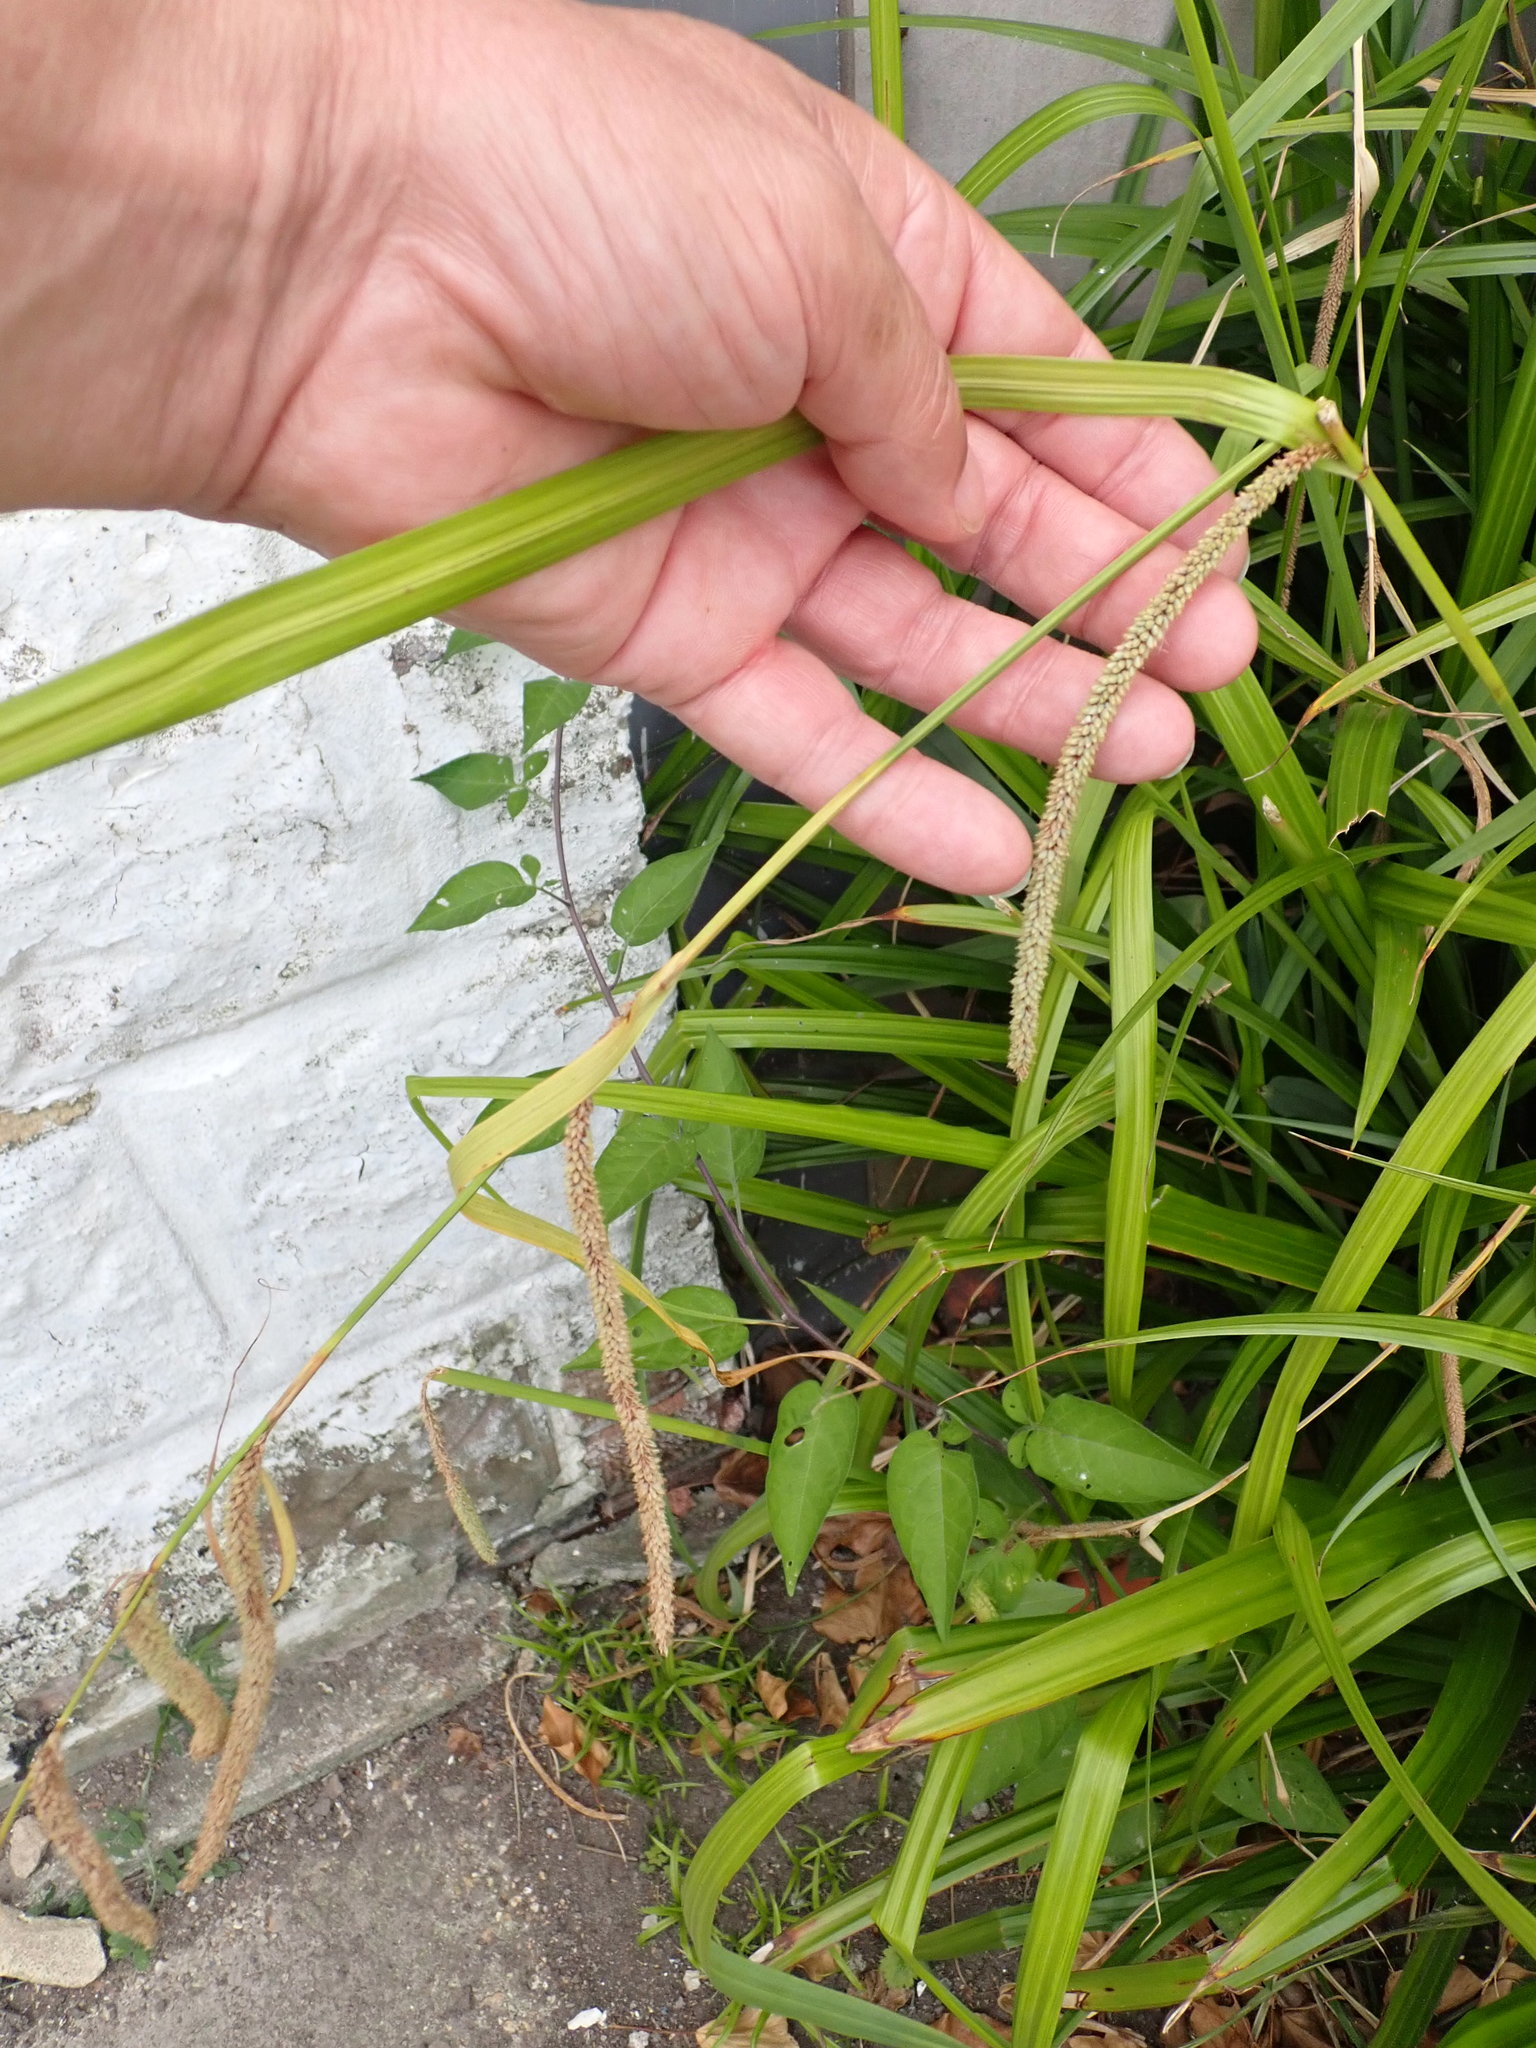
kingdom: Plantae
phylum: Tracheophyta
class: Liliopsida
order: Poales
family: Cyperaceae
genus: Carex
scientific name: Carex pendula
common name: Pendulous sedge
